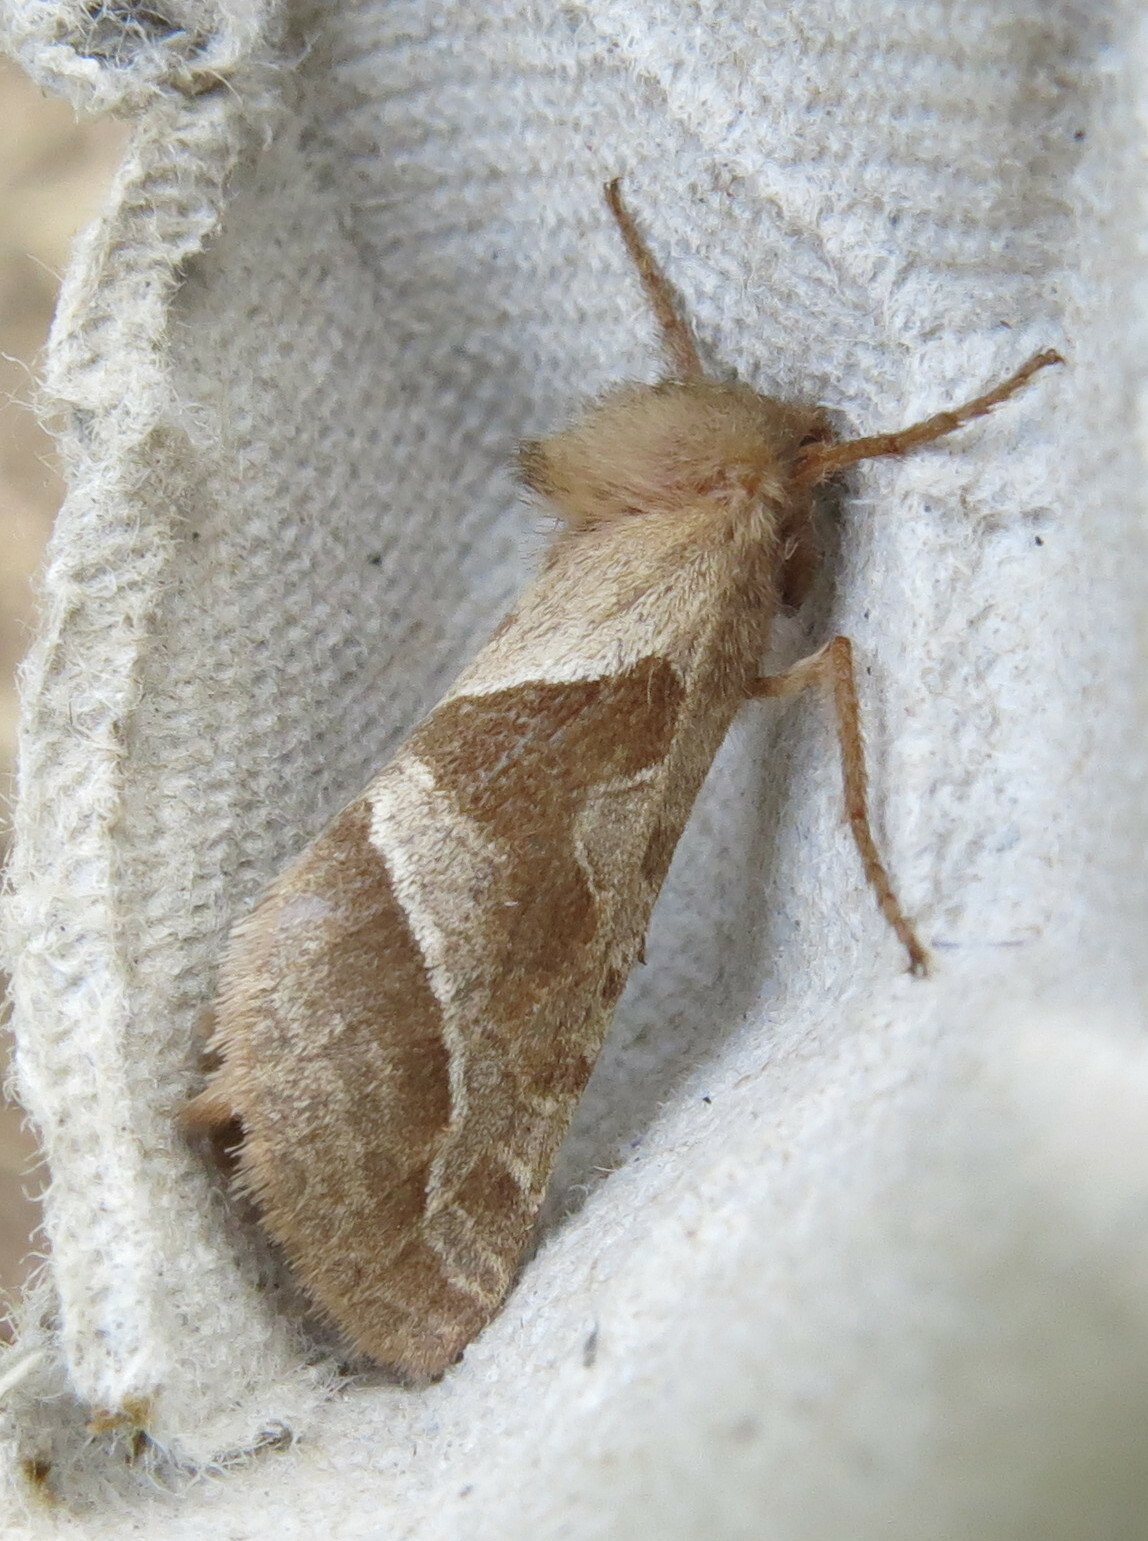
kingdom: Animalia
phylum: Arthropoda
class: Insecta
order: Lepidoptera
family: Hepialidae
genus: Triodia
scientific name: Triodia sylvina
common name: Orange swift
